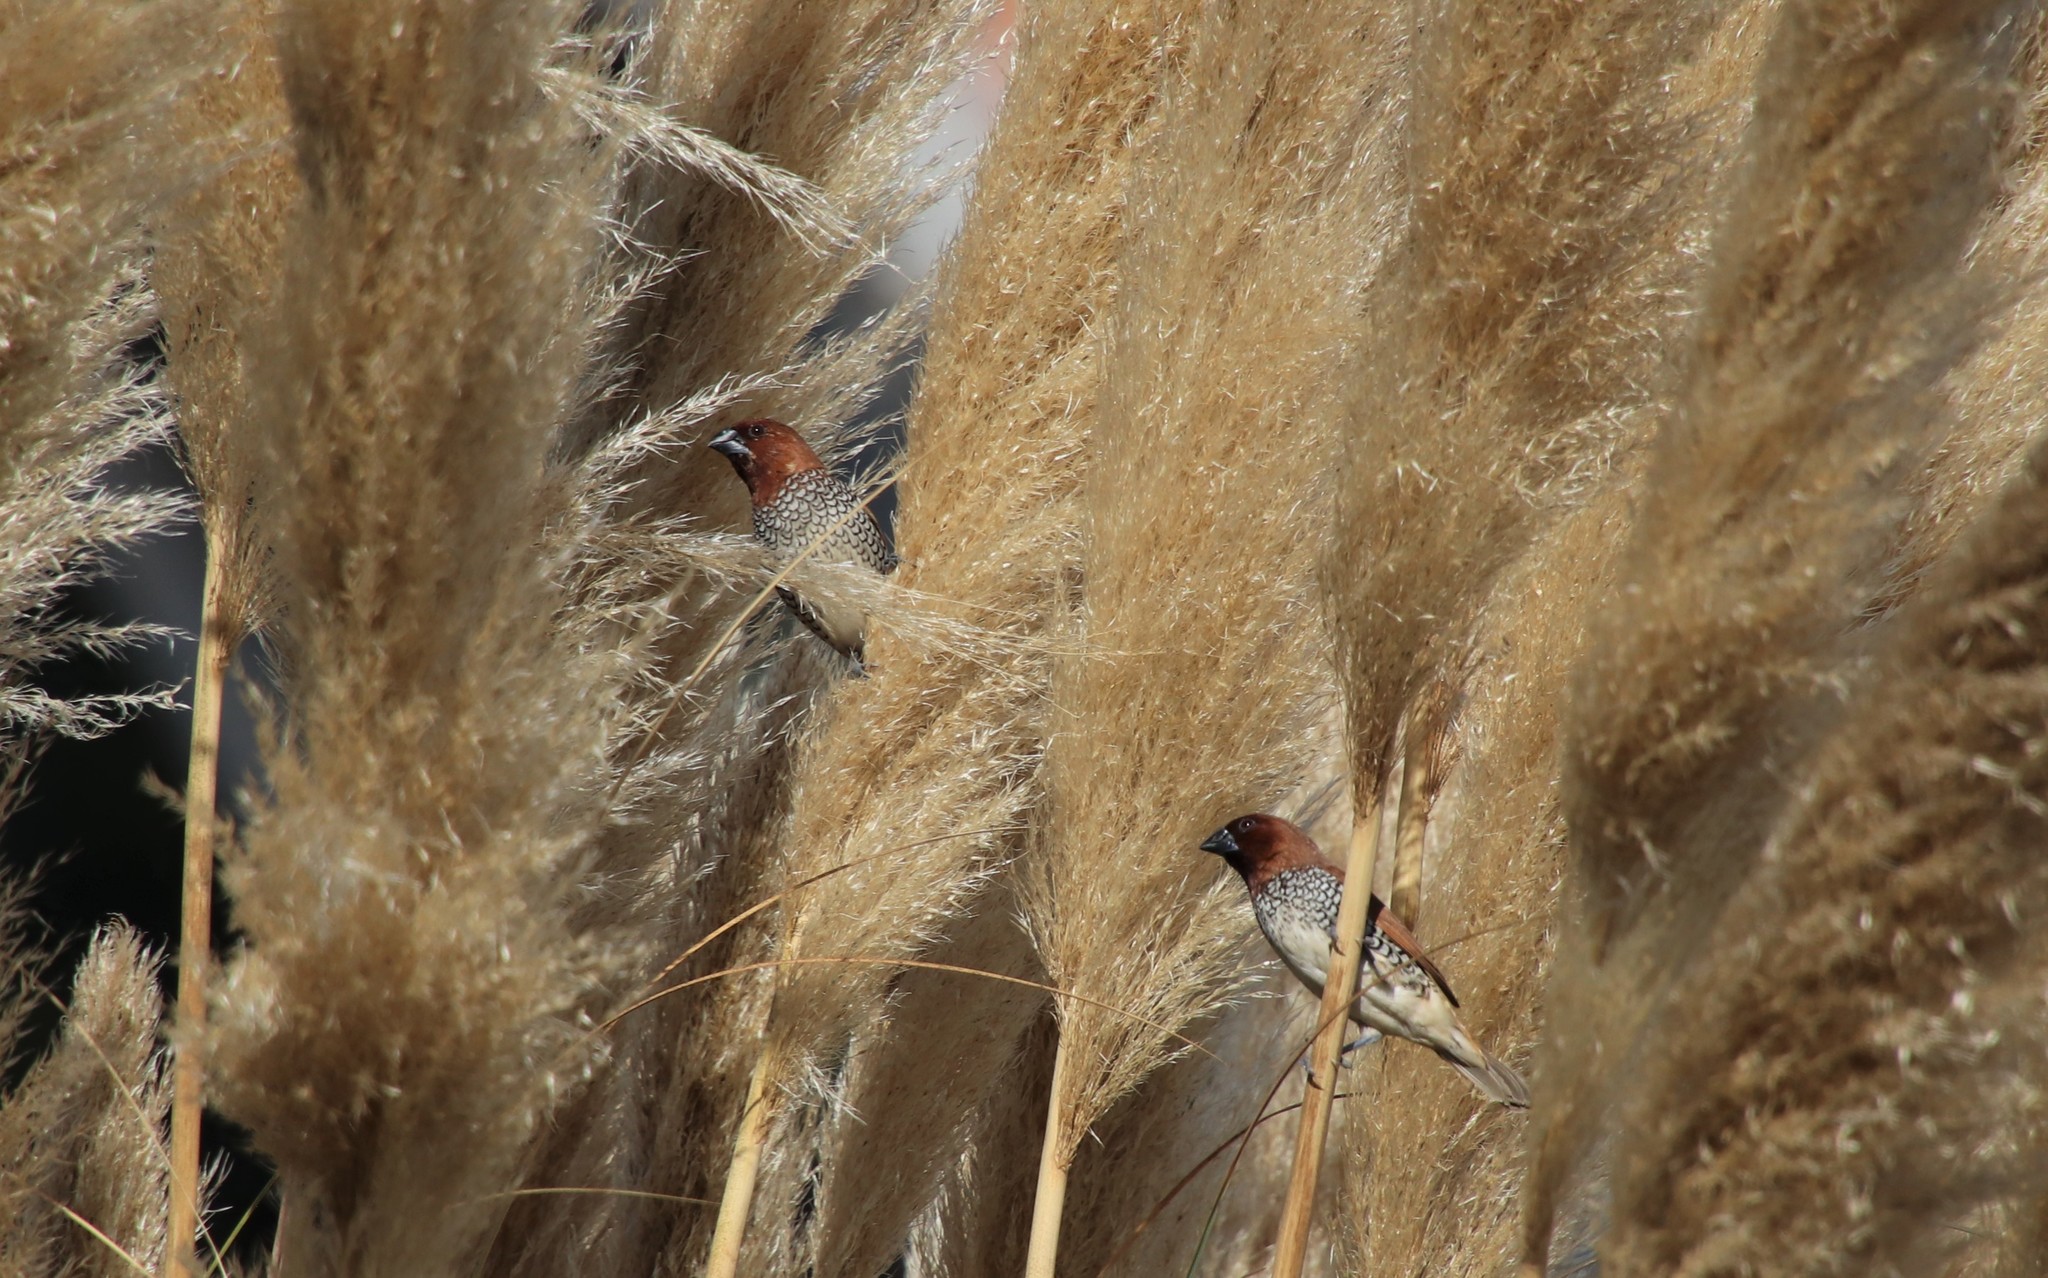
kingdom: Animalia
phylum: Chordata
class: Aves
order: Passeriformes
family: Estrildidae
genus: Lonchura
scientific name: Lonchura punctulata
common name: Scaly-breasted munia
